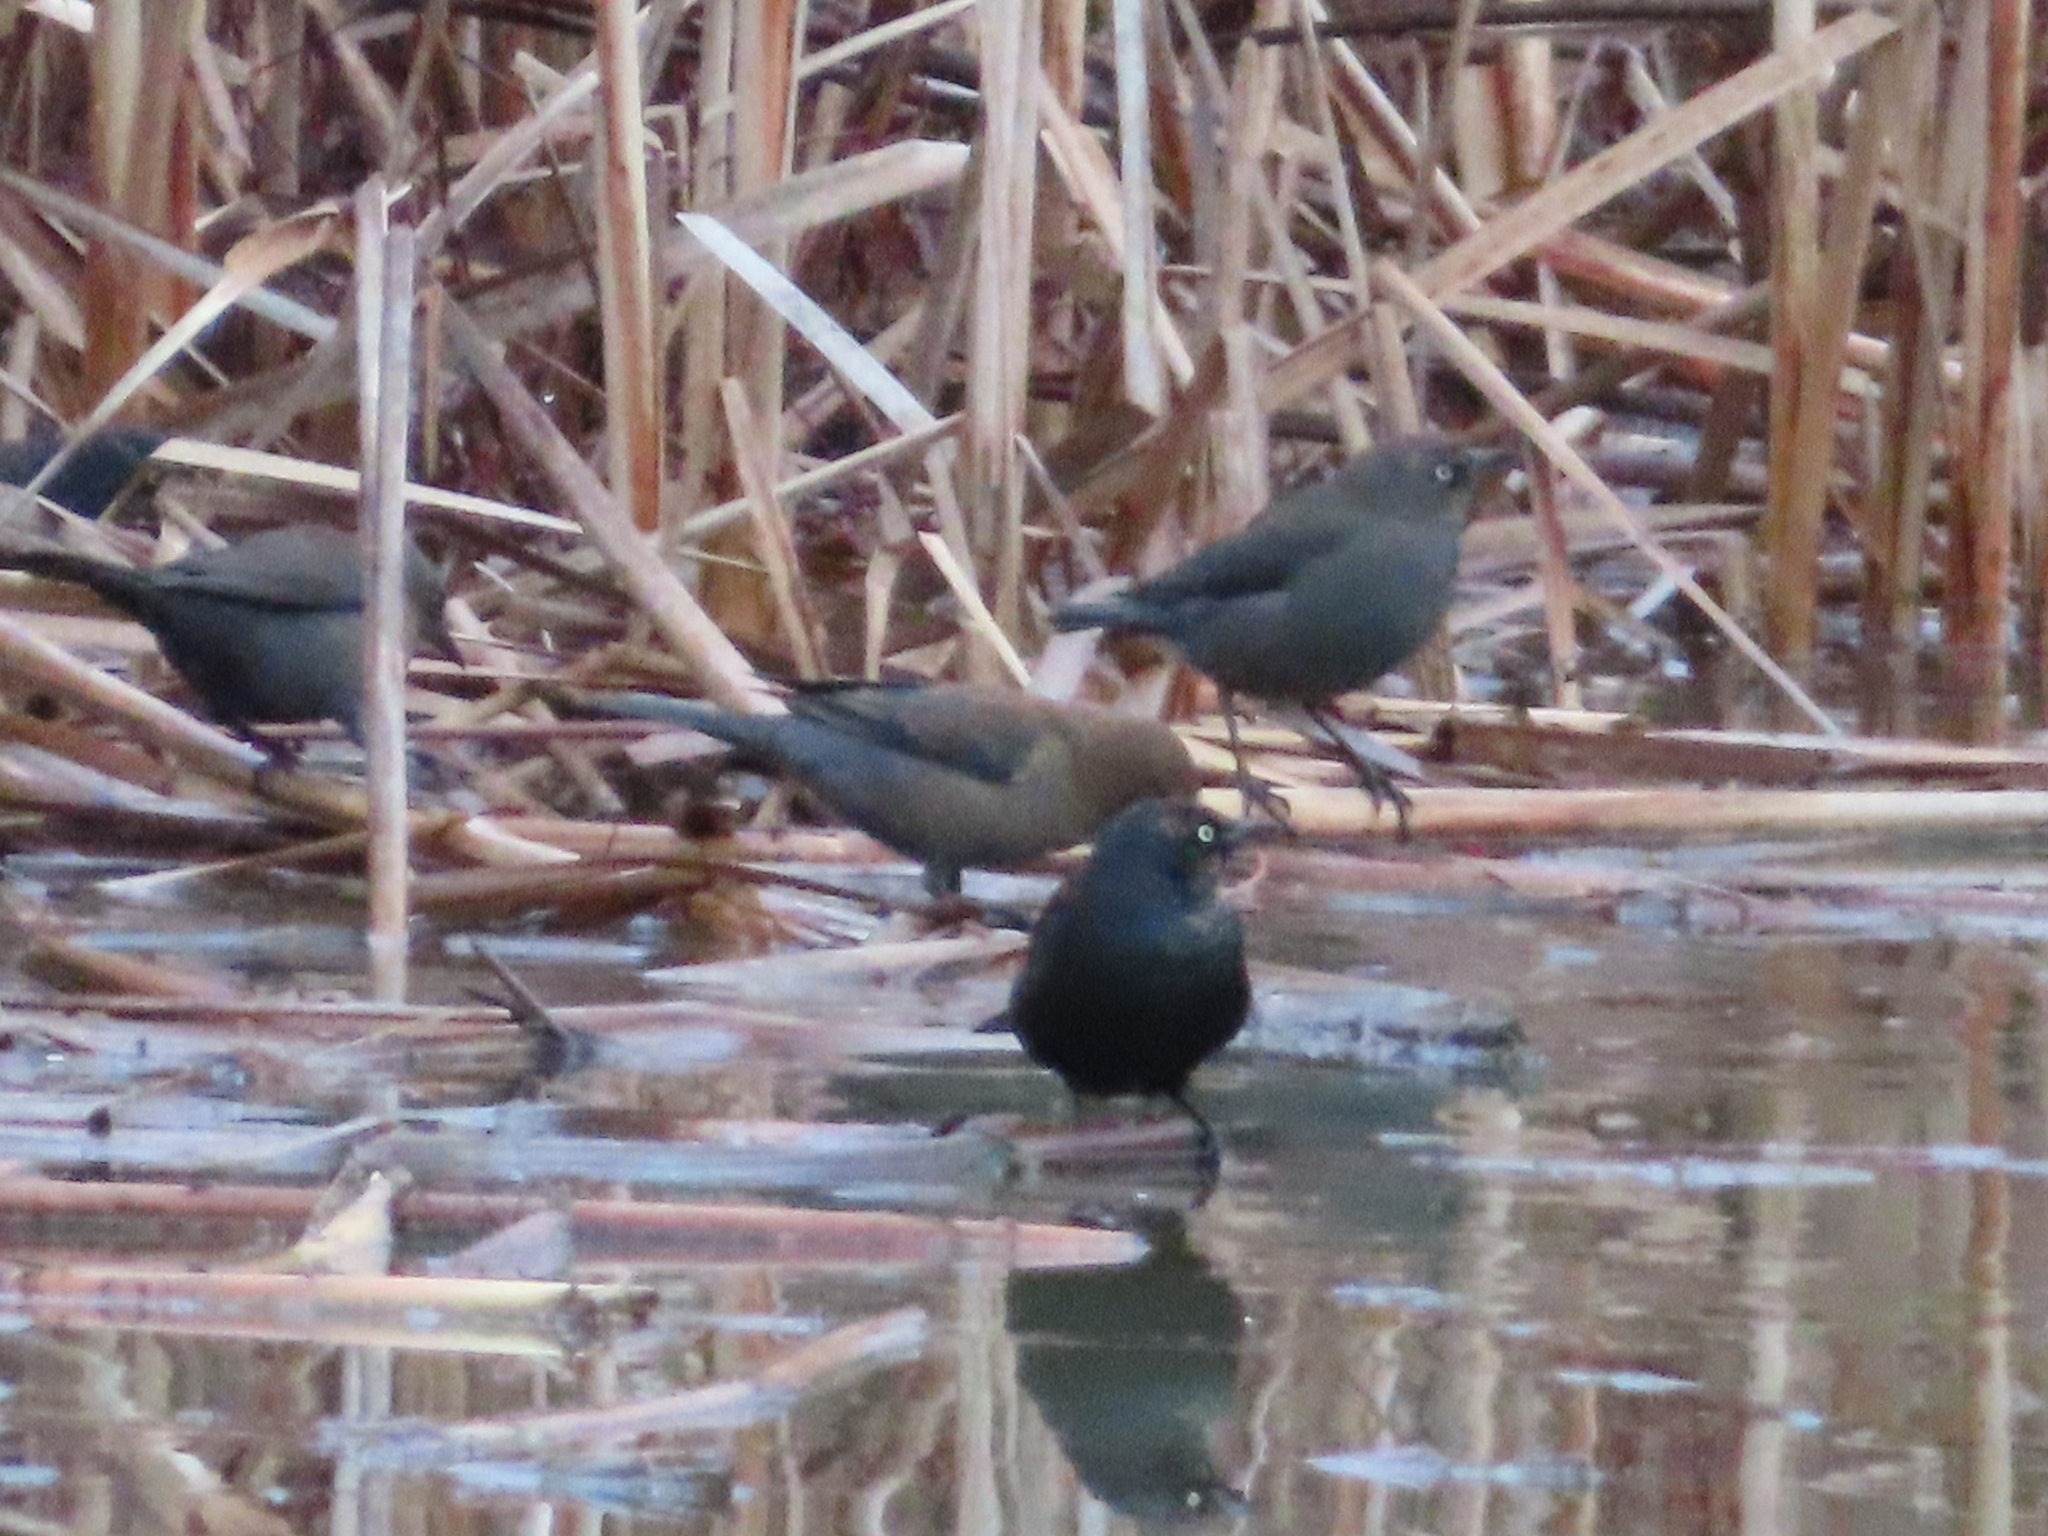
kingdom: Animalia
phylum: Chordata
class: Aves
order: Passeriformes
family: Icteridae
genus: Euphagus
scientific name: Euphagus carolinus
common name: Rusty blackbird
